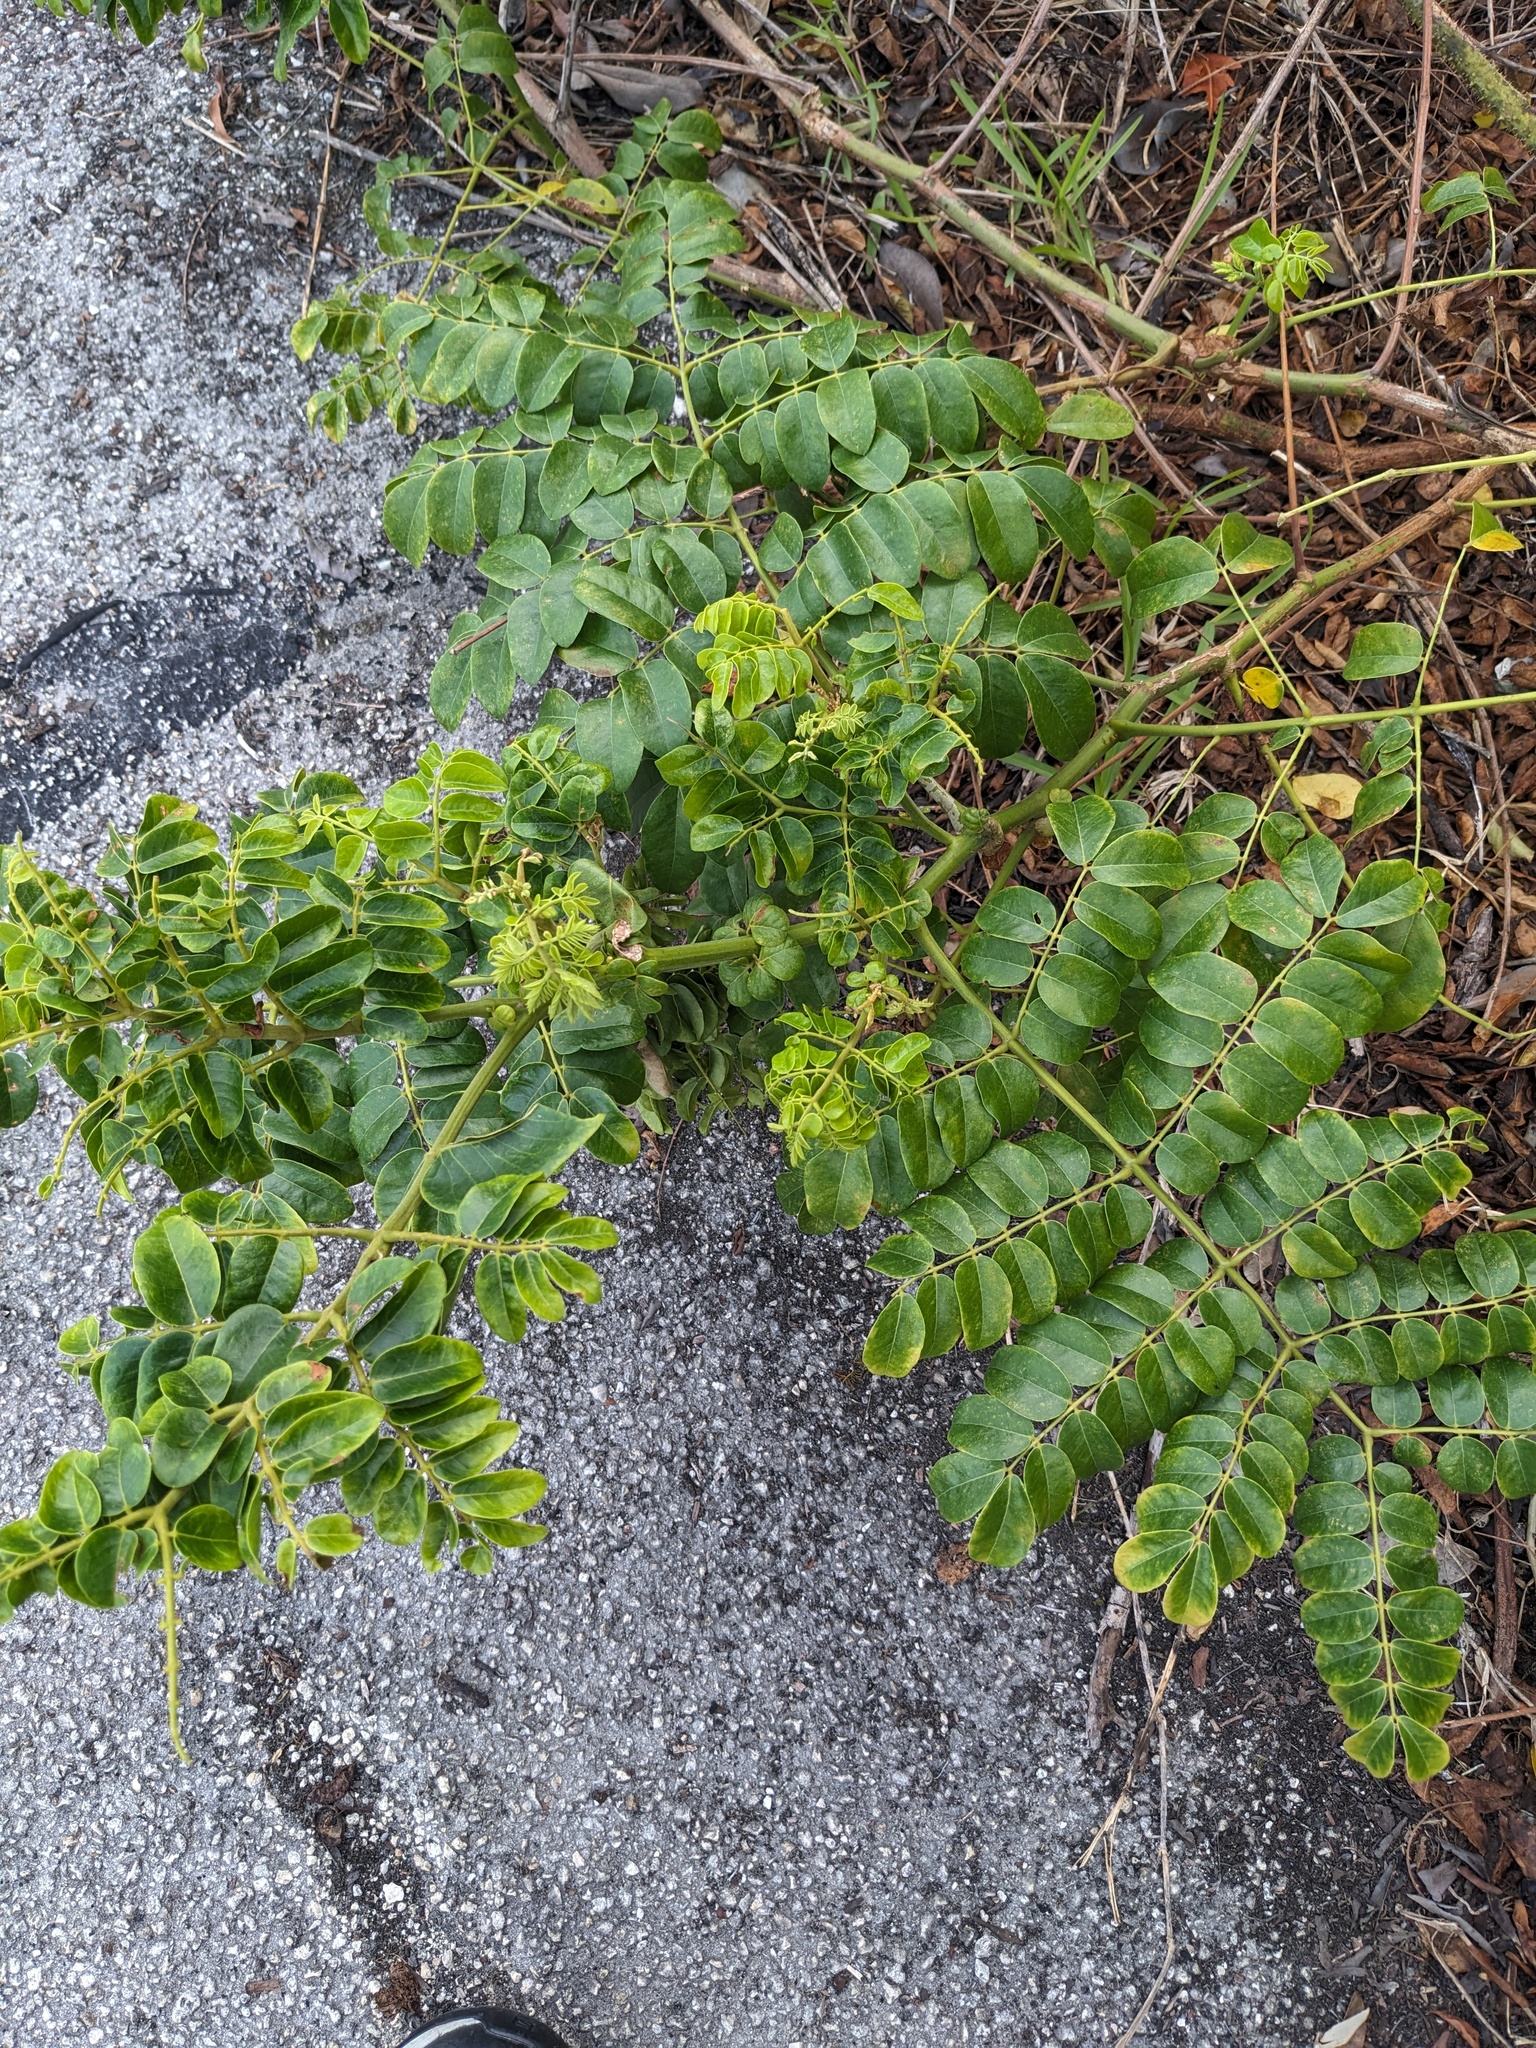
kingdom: Plantae
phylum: Tracheophyta
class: Magnoliopsida
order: Fabales
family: Fabaceae
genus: Guilandina
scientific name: Guilandina bonduc
